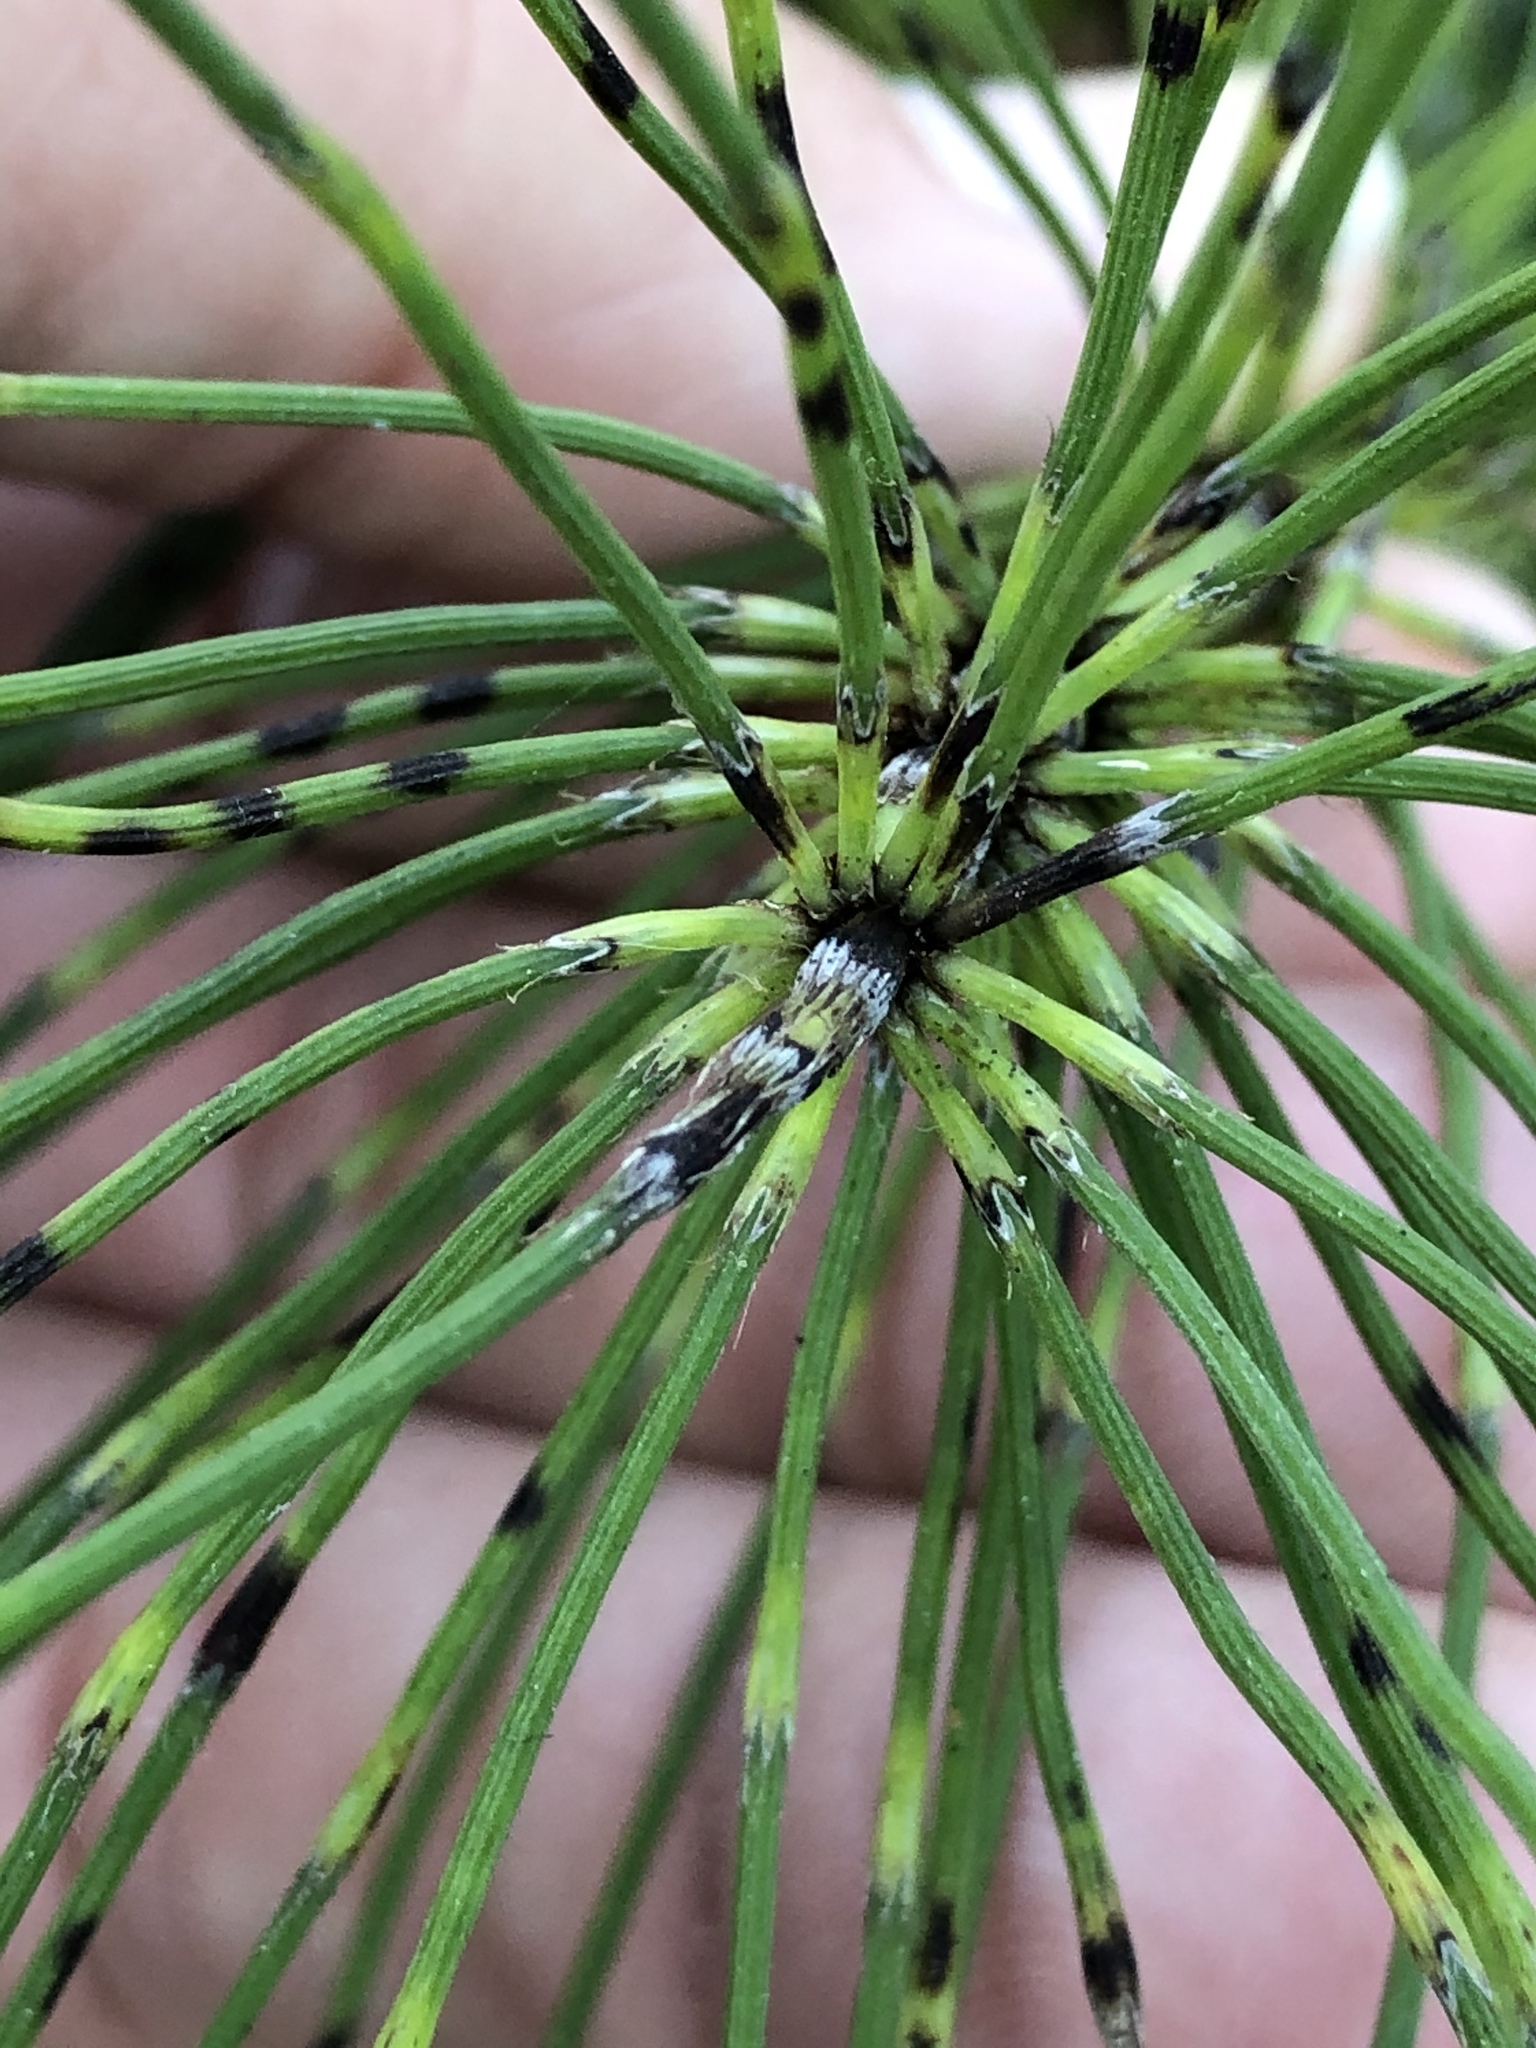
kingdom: Plantae
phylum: Tracheophyta
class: Polypodiopsida
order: Equisetales
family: Equisetaceae
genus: Equisetum
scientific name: Equisetum braunii
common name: Braun's horsetail
